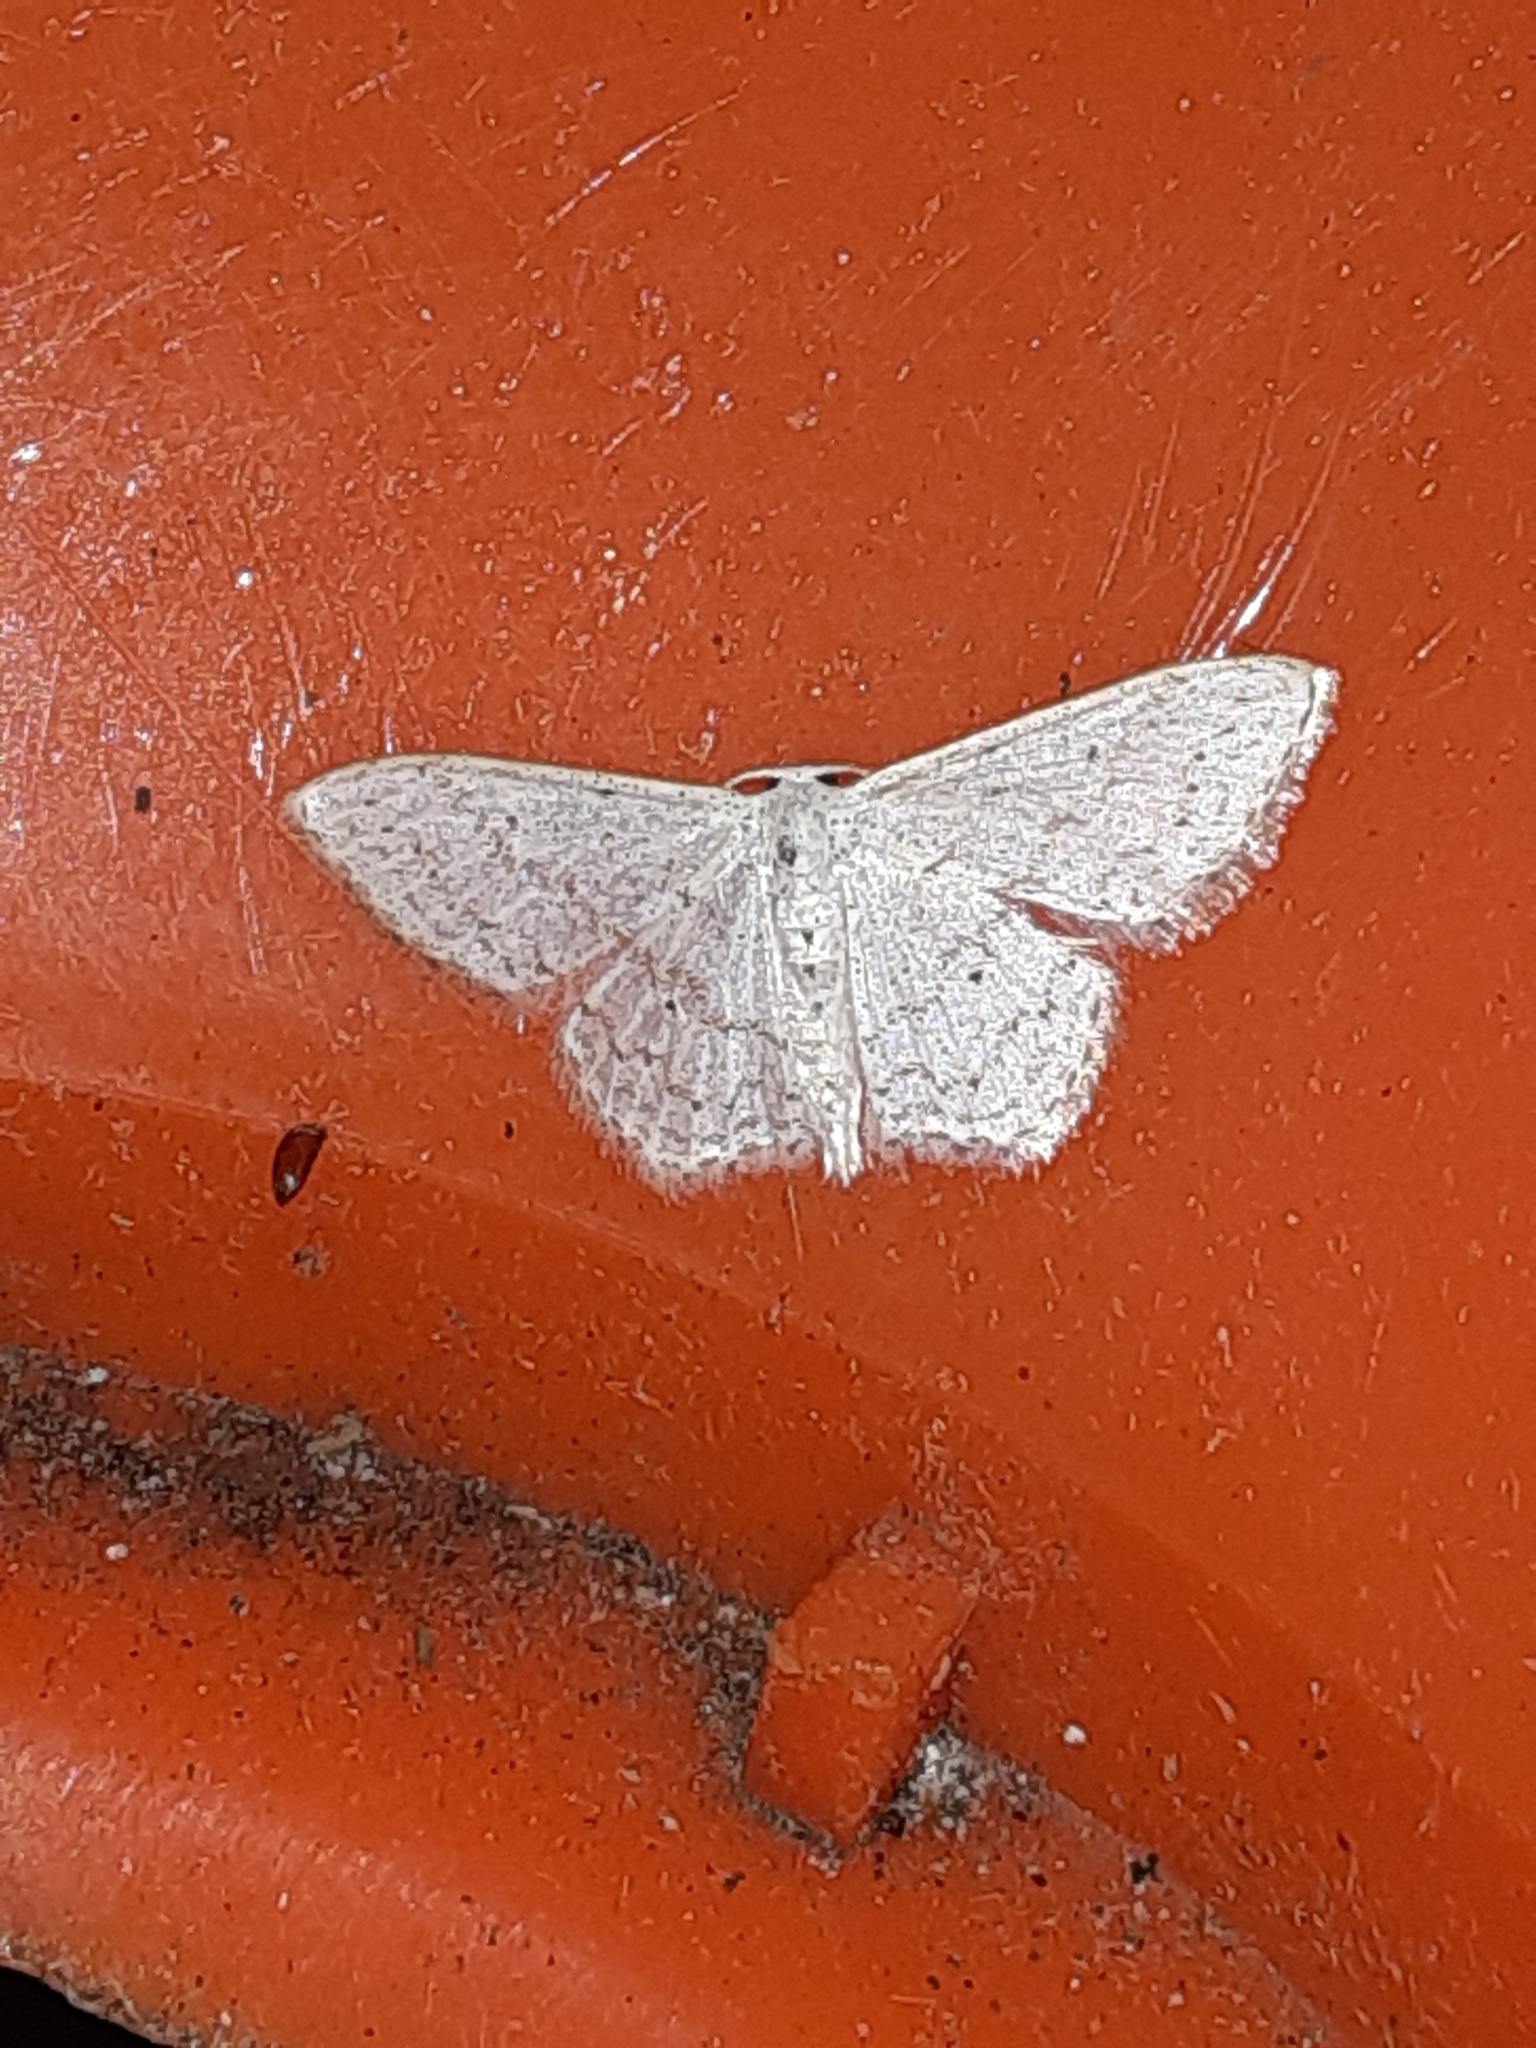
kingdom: Animalia
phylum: Arthropoda
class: Insecta
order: Lepidoptera
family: Geometridae
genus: Idaea
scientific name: Idaea tacturata
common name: Dot-lined wave
